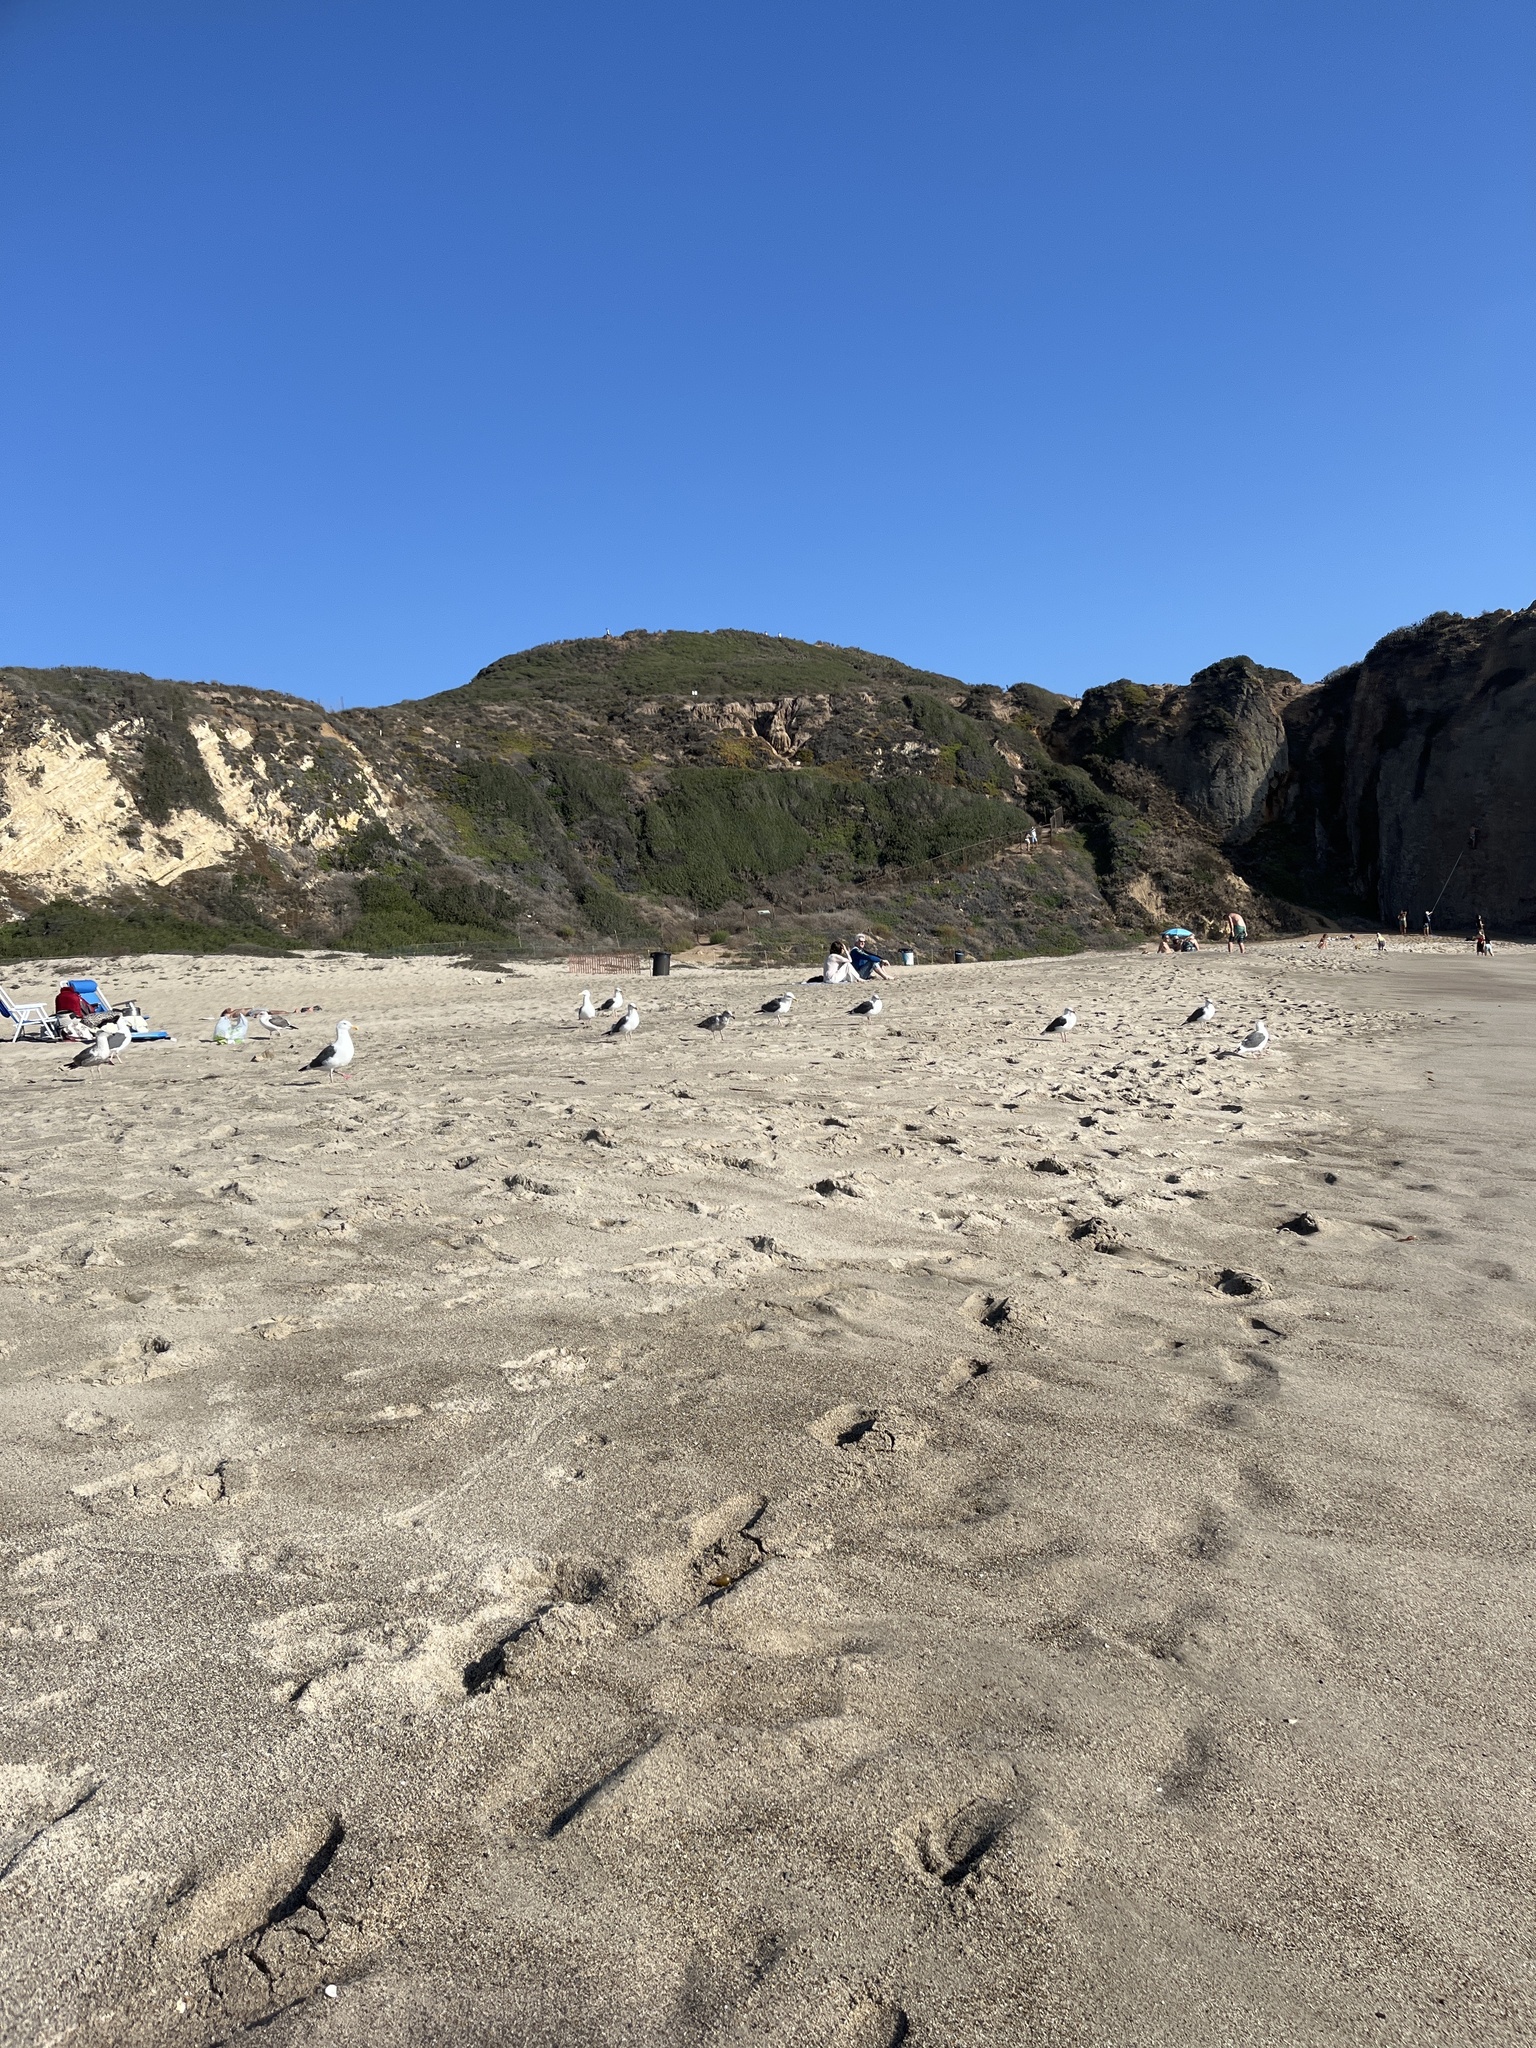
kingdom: Animalia
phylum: Chordata
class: Aves
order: Charadriiformes
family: Laridae
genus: Larus
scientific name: Larus occidentalis
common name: Western gull
